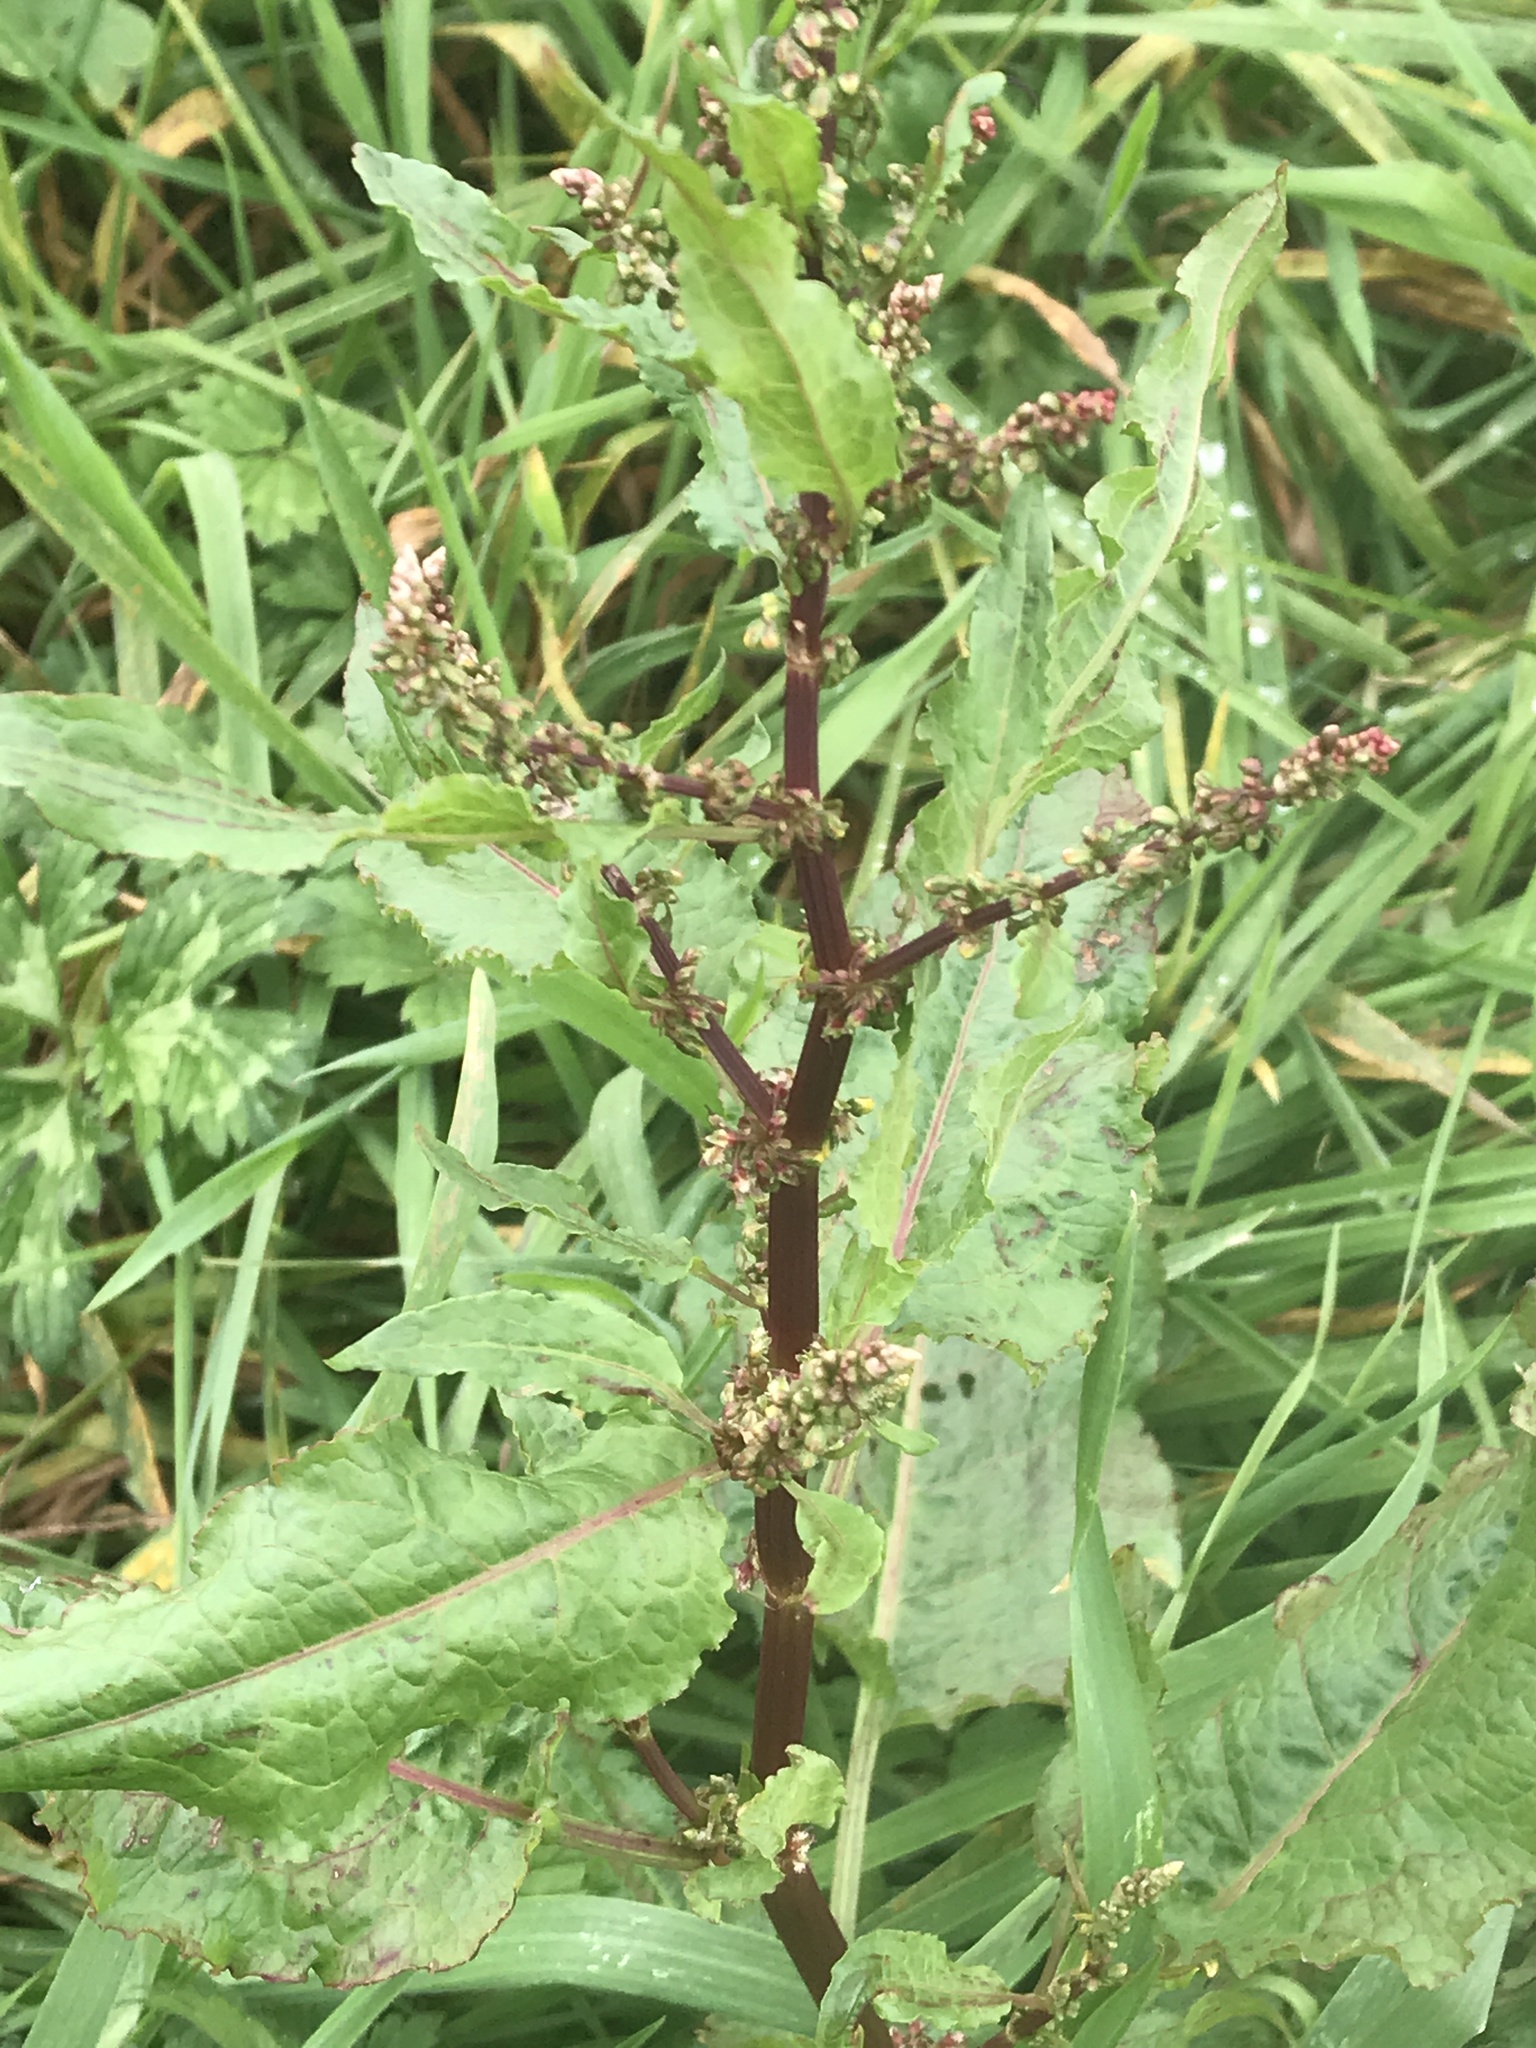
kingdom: Plantae
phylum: Tracheophyta
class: Magnoliopsida
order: Caryophyllales
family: Polygonaceae
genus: Rumex
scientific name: Rumex obtusifolius
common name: Bitter dock
